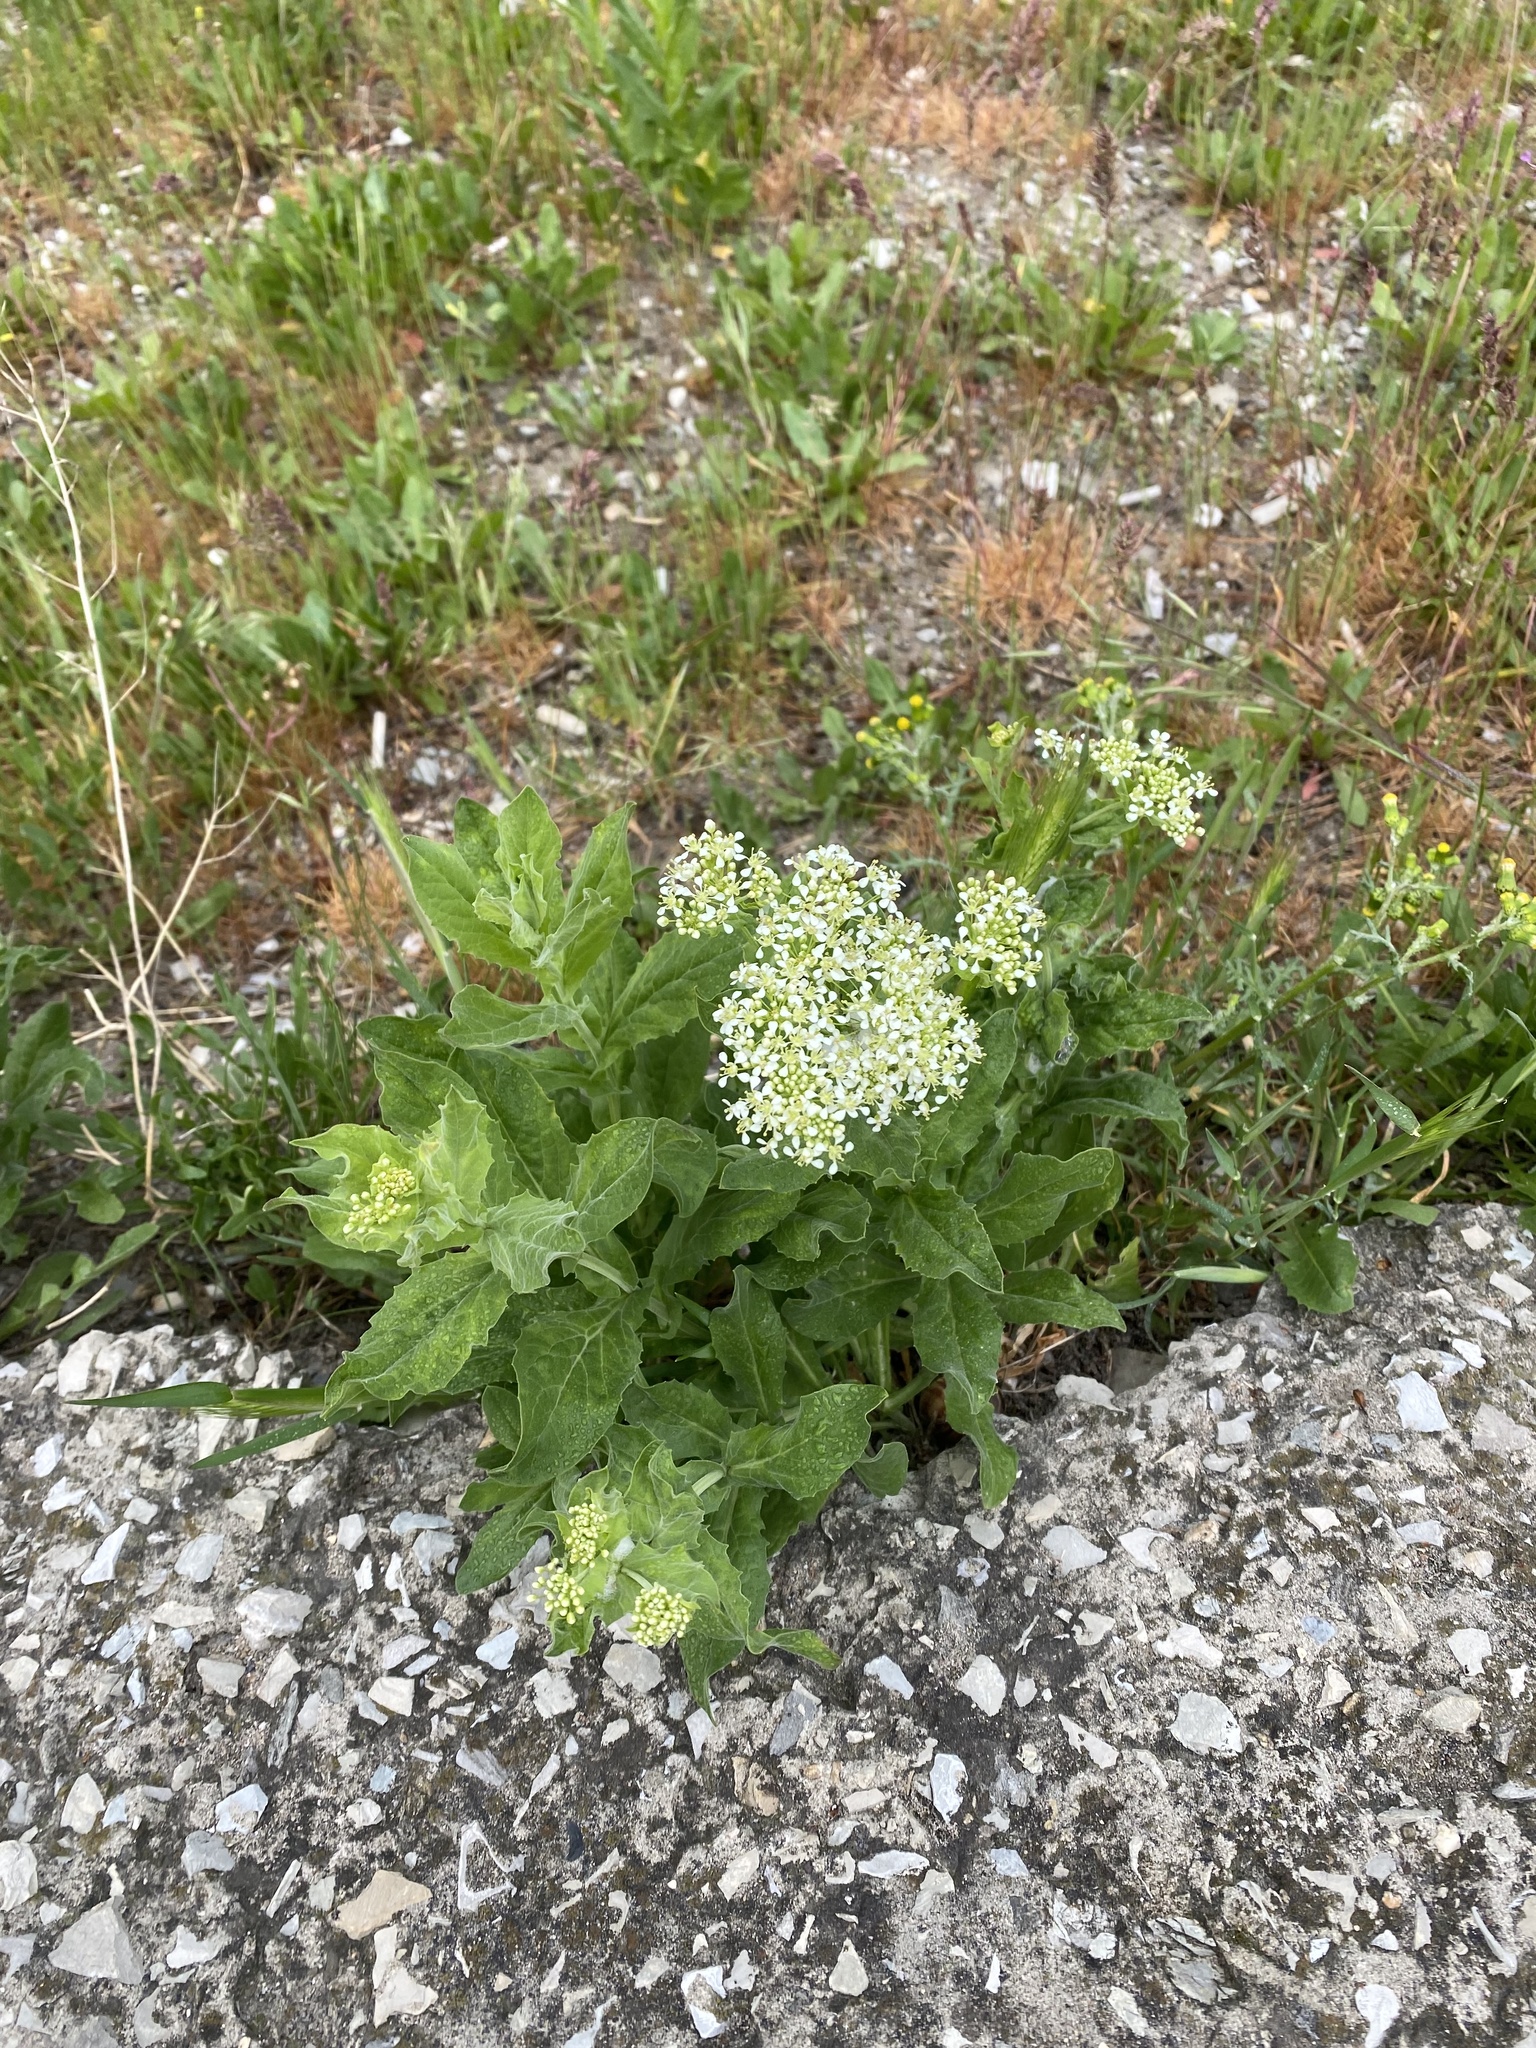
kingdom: Plantae
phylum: Tracheophyta
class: Magnoliopsida
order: Brassicales
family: Brassicaceae
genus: Lepidium
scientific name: Lepidium draba
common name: Hoary cress
